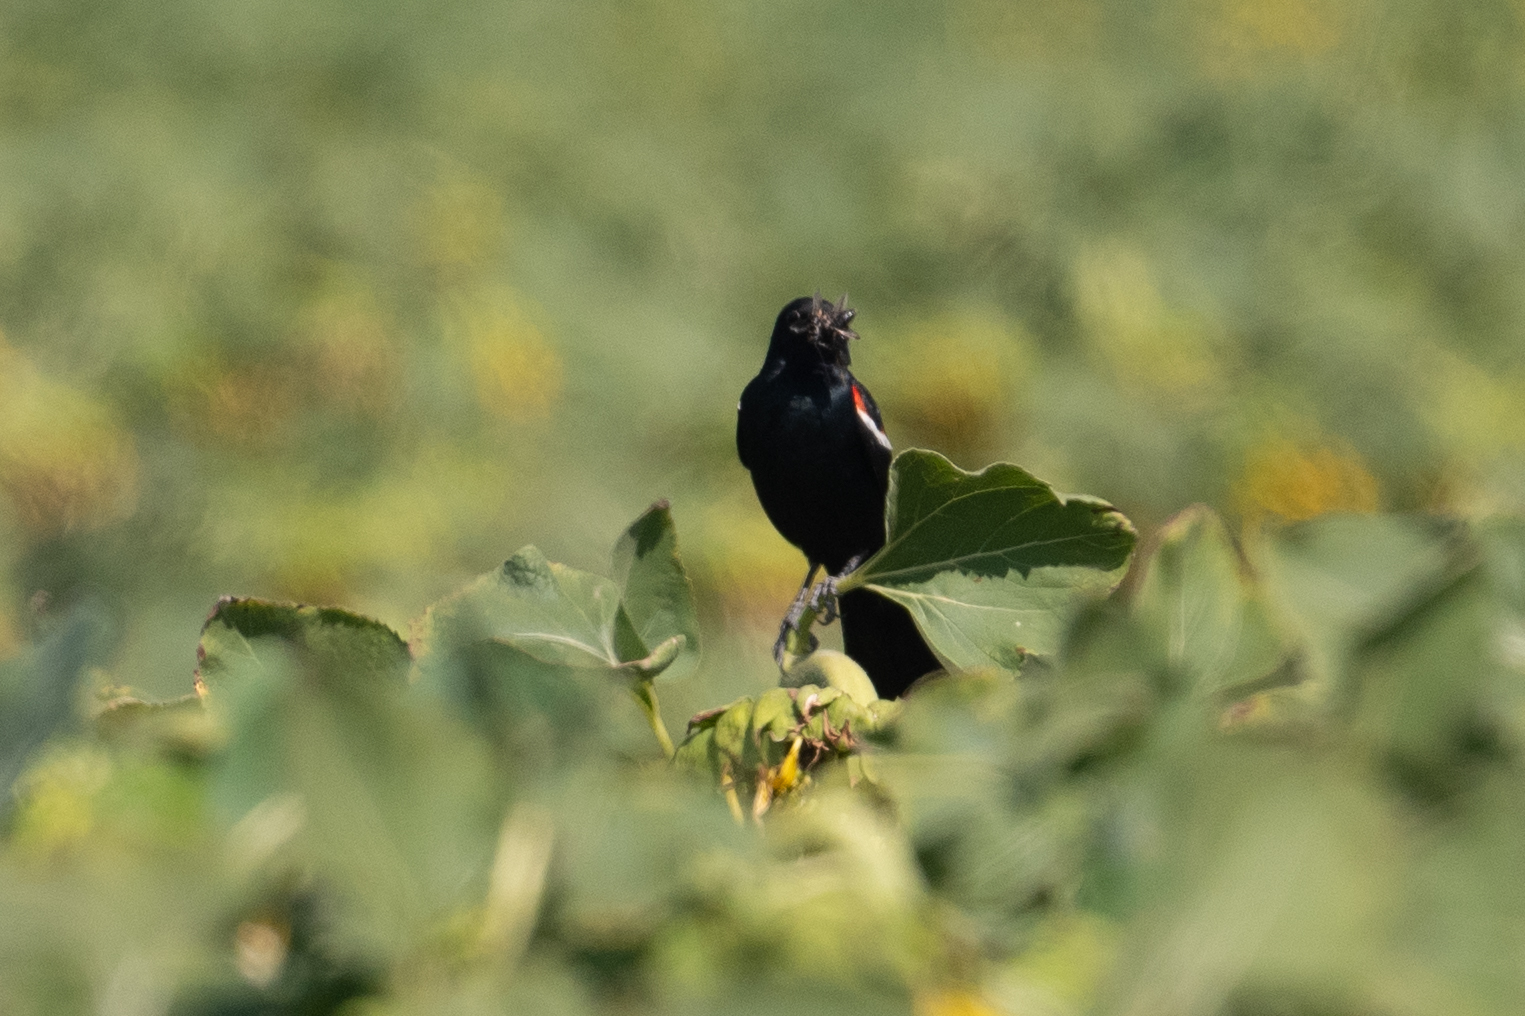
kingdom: Animalia
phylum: Chordata
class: Aves
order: Passeriformes
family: Icteridae
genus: Agelaius
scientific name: Agelaius tricolor
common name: Tricolored blackbird
